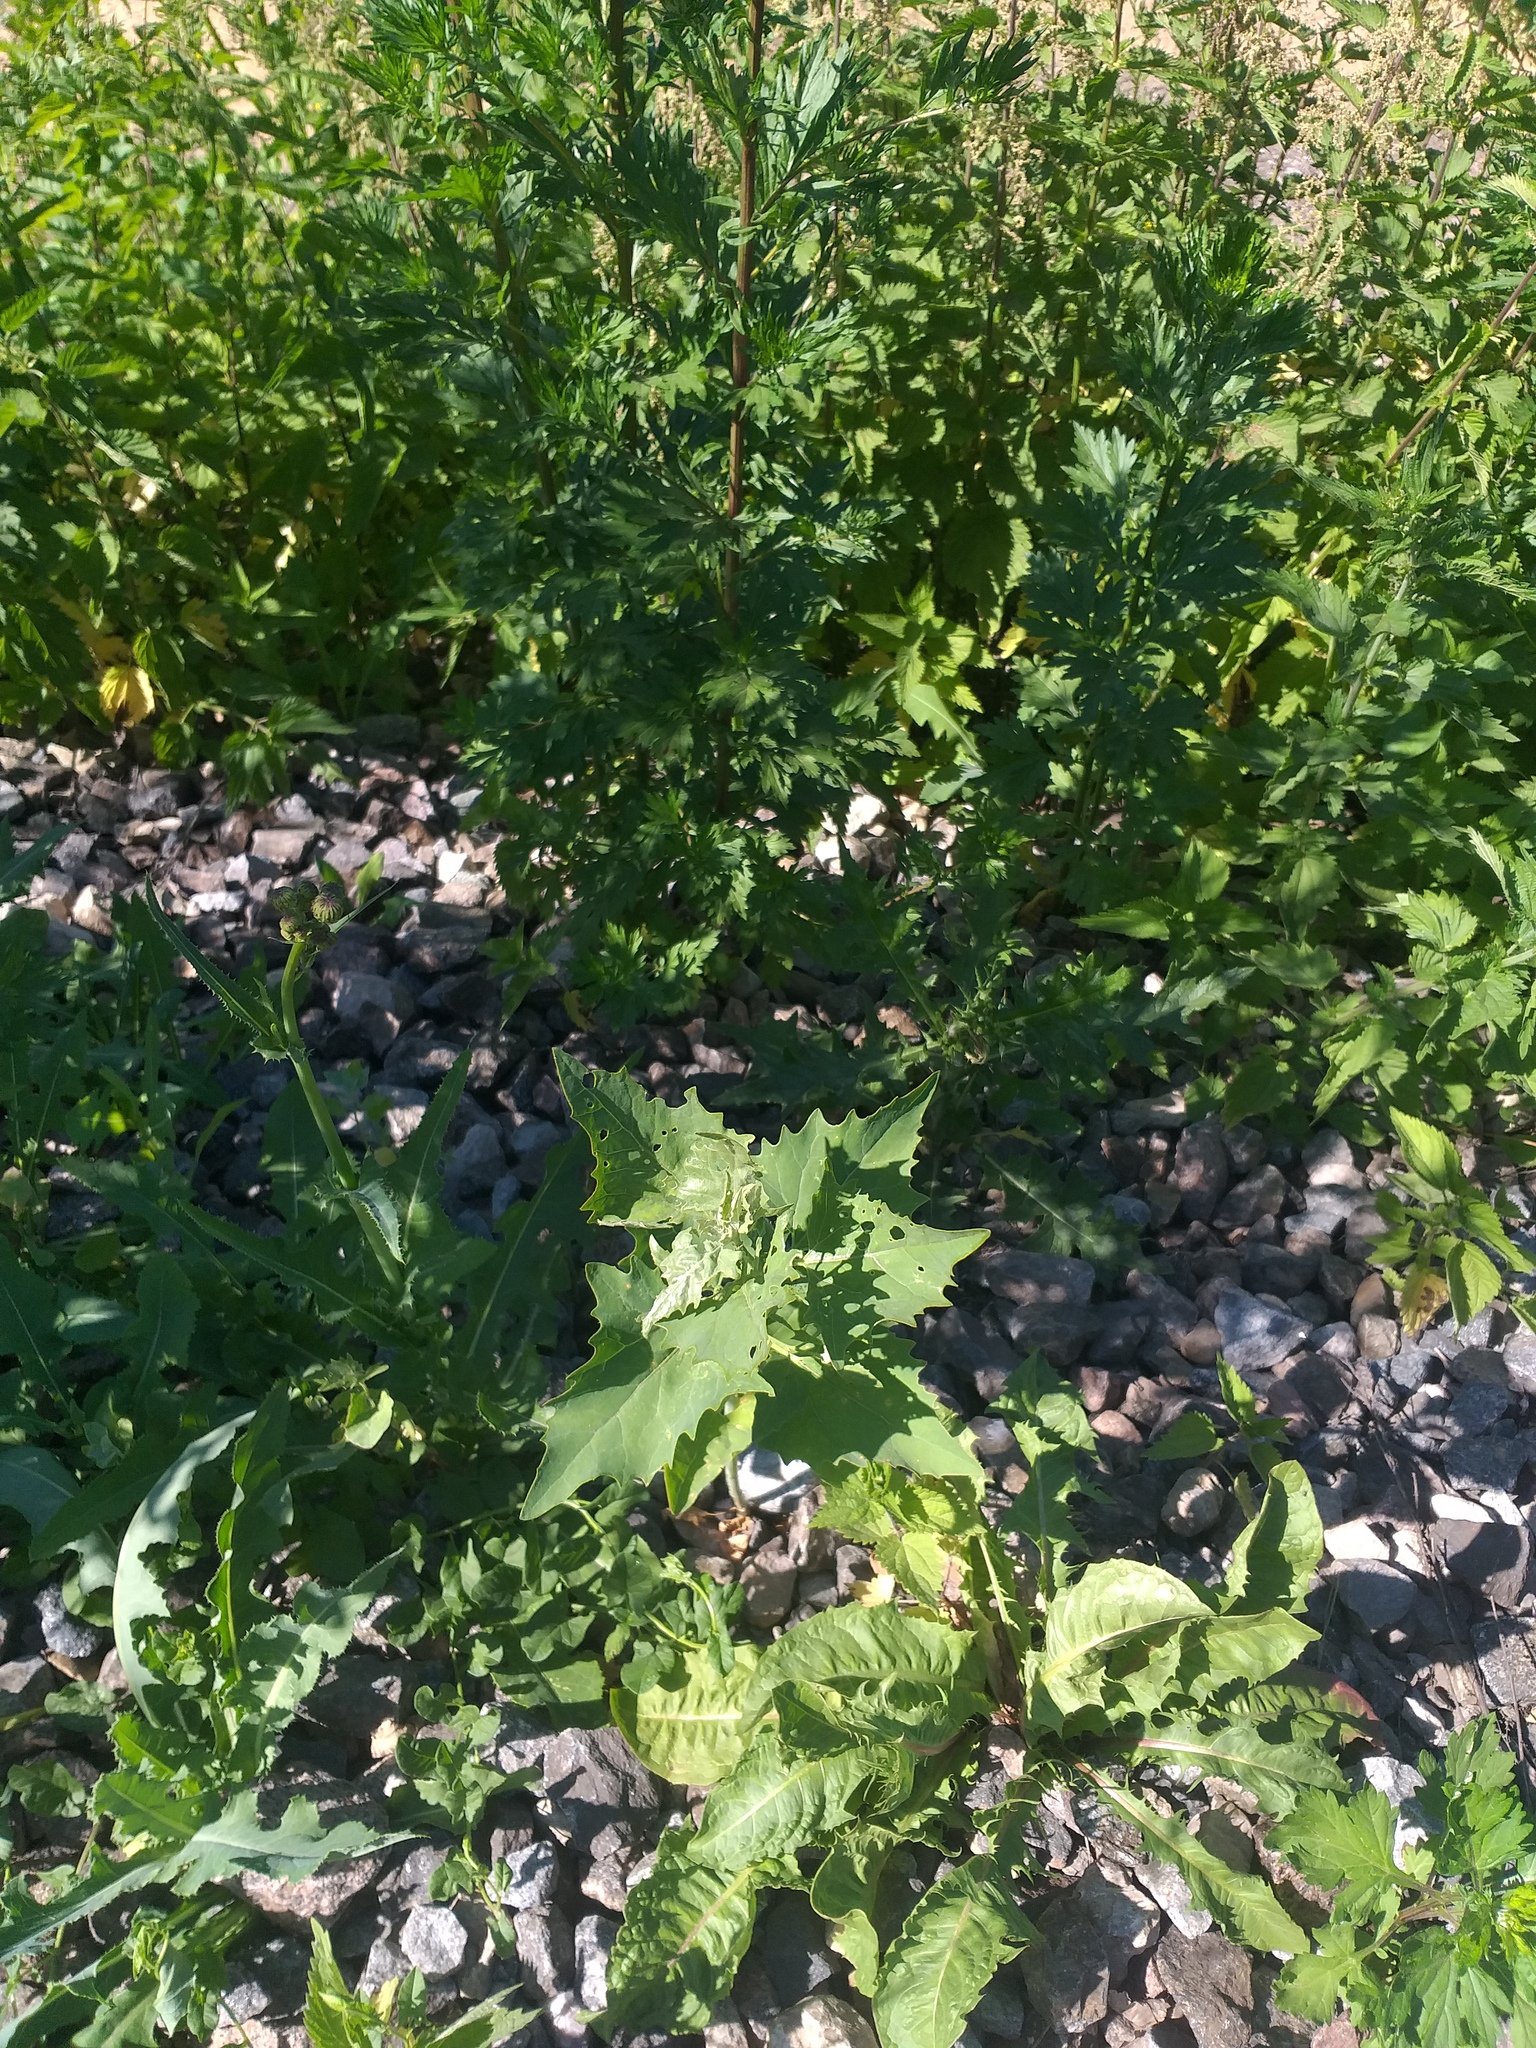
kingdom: Plantae
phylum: Tracheophyta
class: Magnoliopsida
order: Caryophyllales
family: Amaranthaceae
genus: Atriplex
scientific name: Atriplex sagittata
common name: Purple orache
